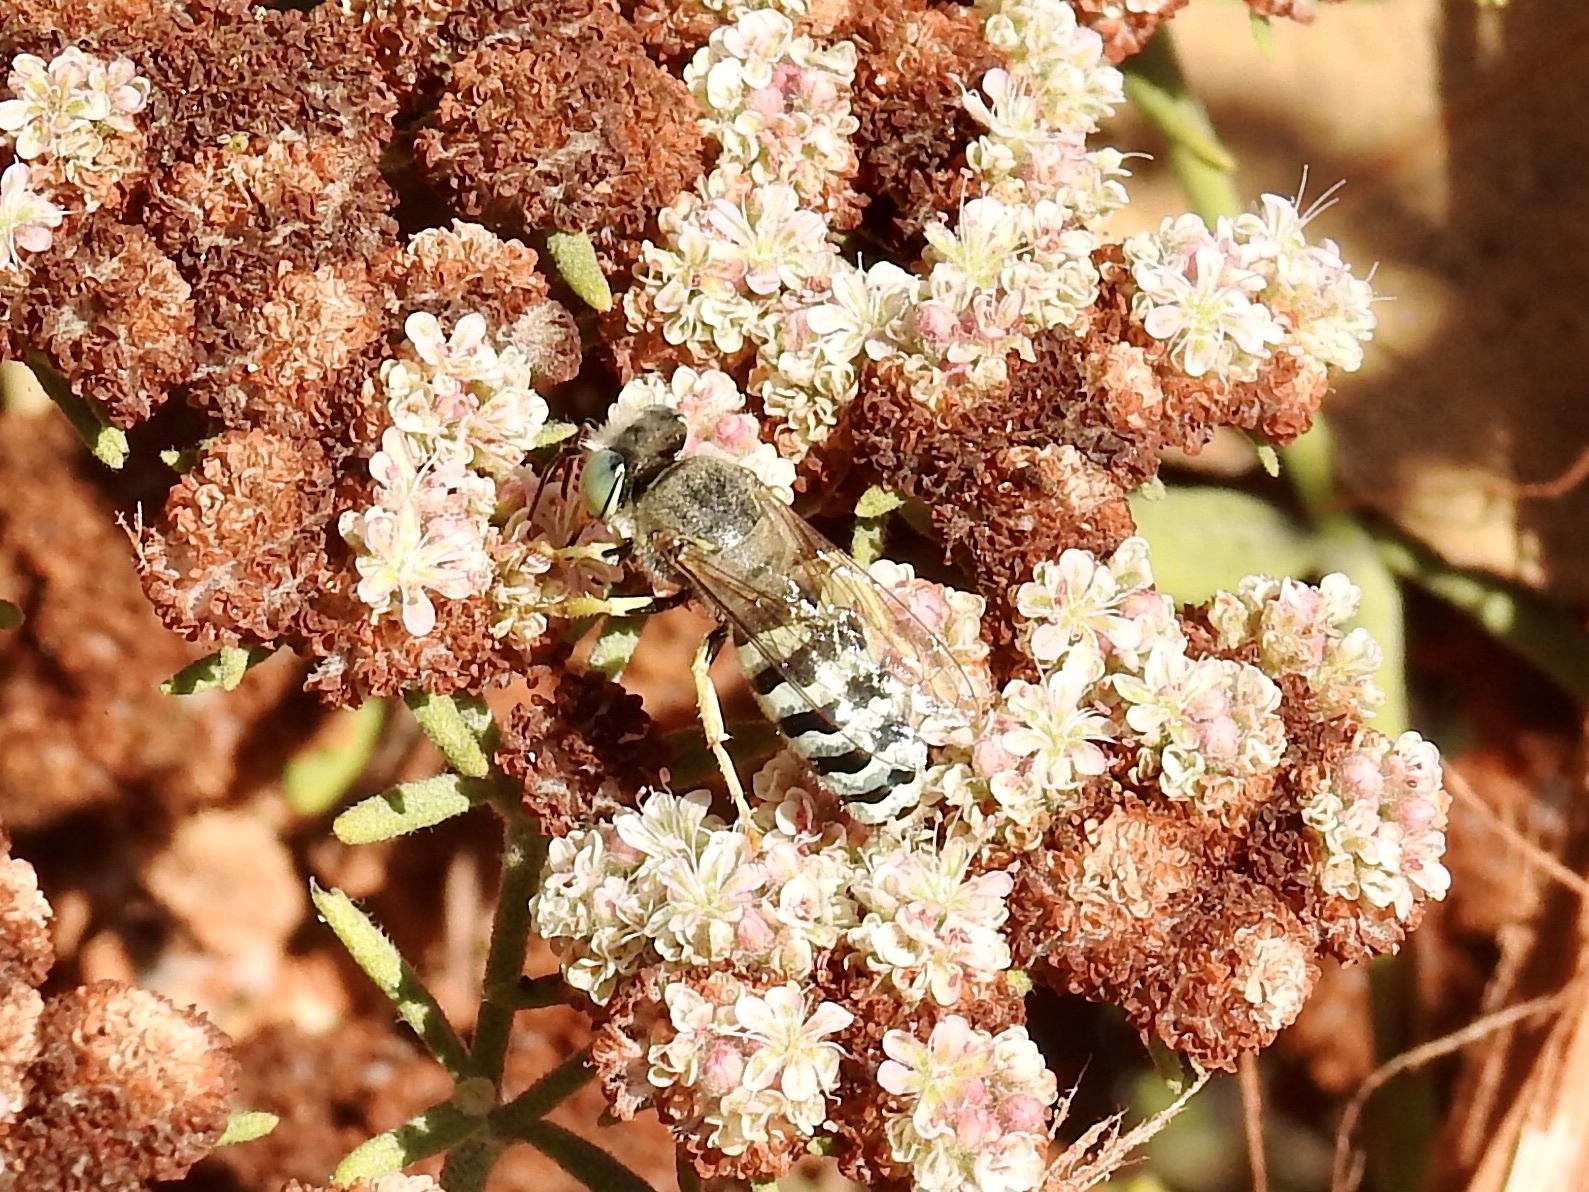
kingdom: Animalia
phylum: Arthropoda
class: Insecta
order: Hymenoptera
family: Crabronidae
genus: Bembix
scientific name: Bembix americana
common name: American sand wasp
